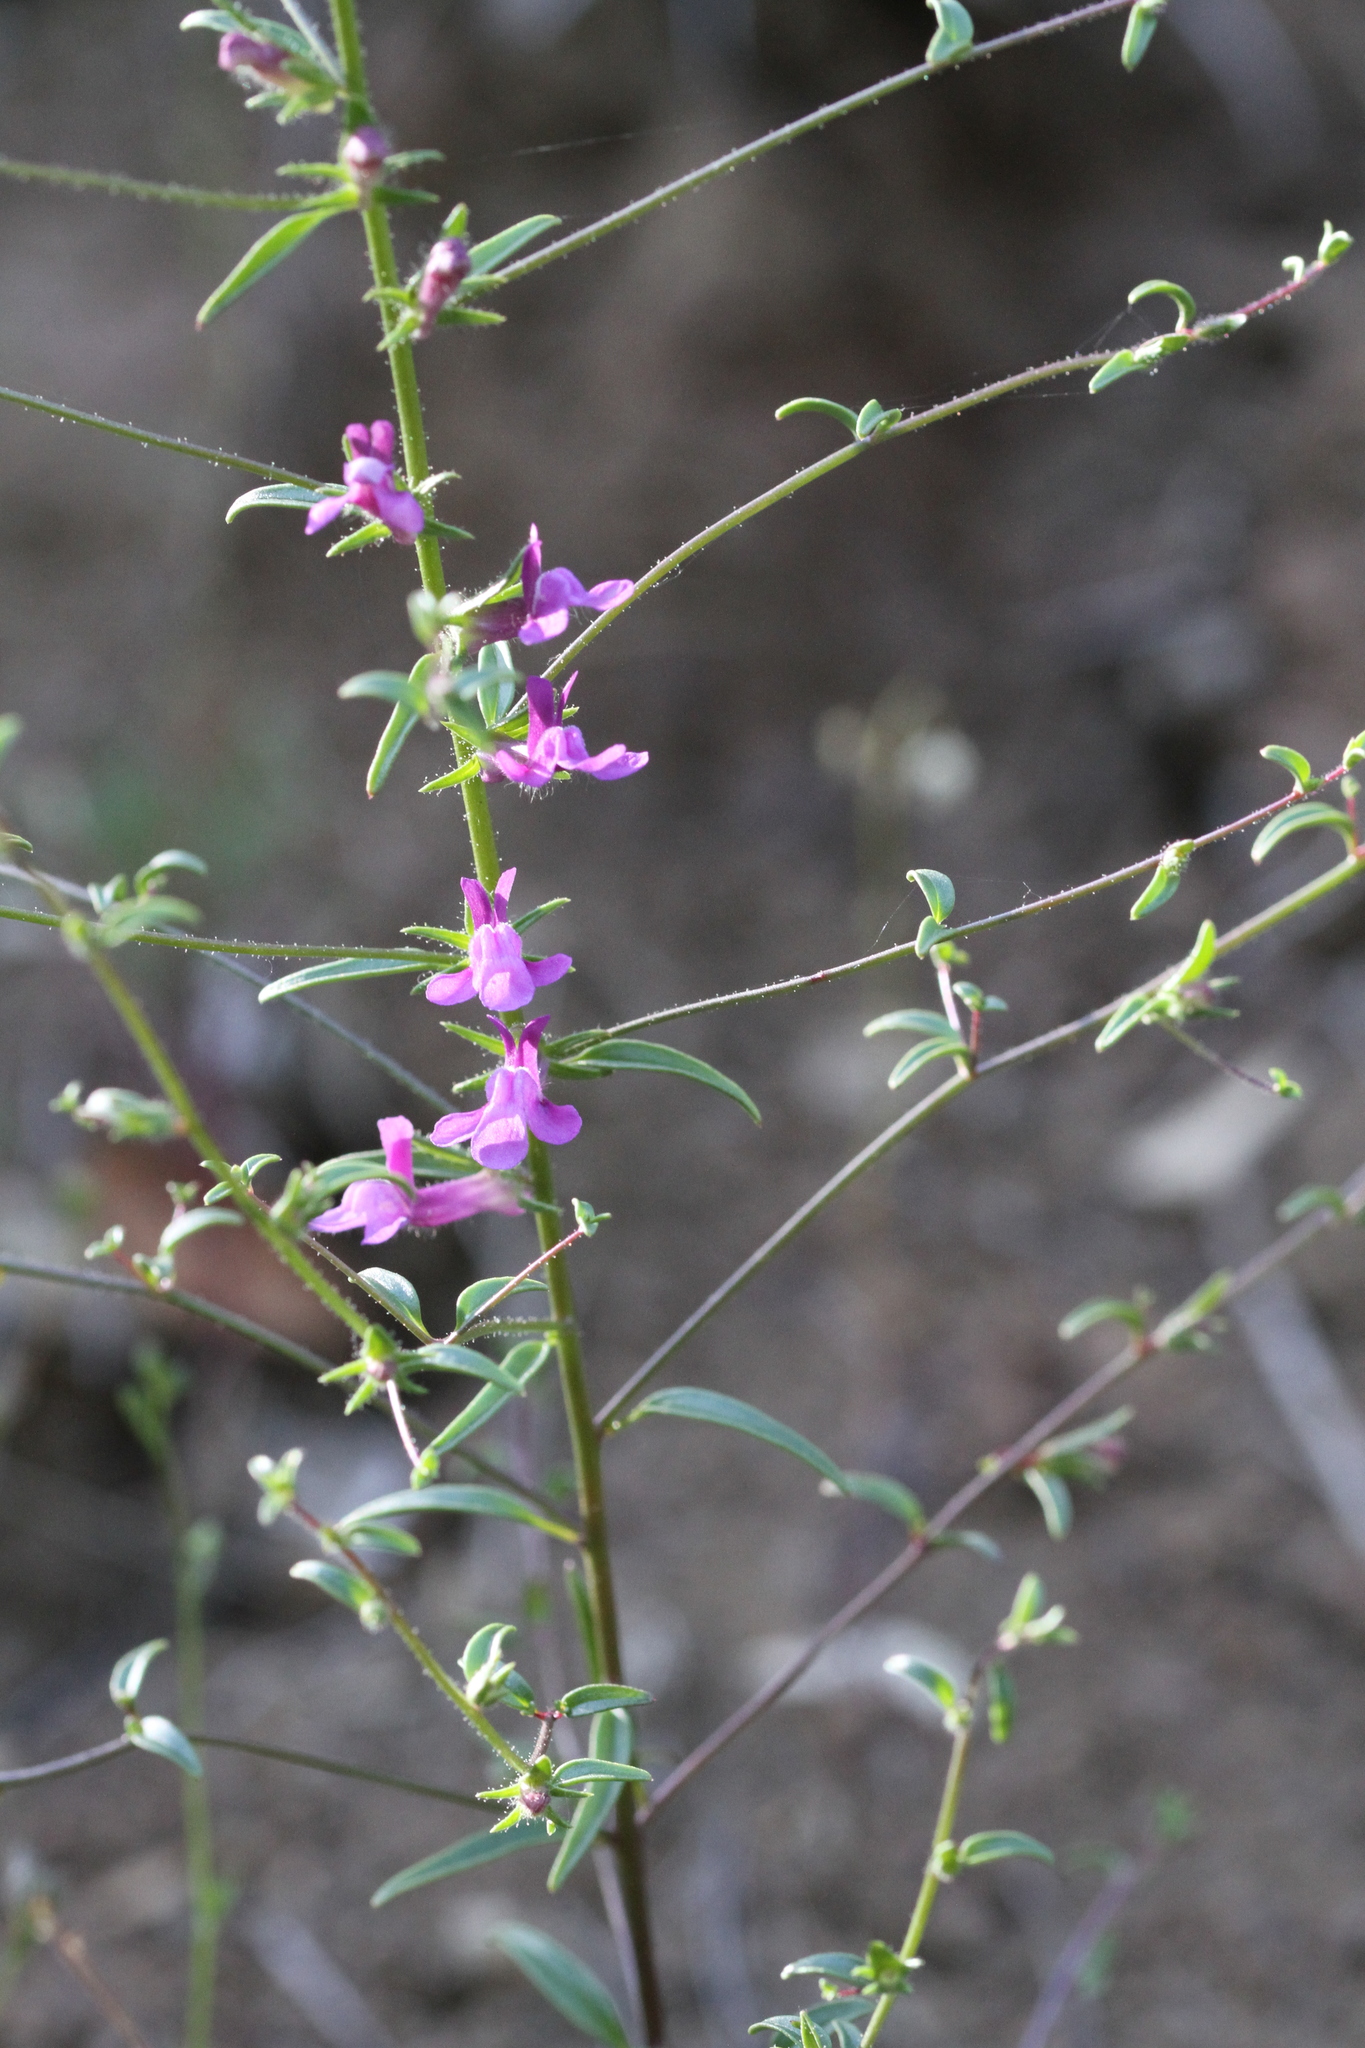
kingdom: Plantae
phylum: Tracheophyta
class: Magnoliopsida
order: Lamiales
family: Plantaginaceae
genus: Sairocarpus
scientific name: Sairocarpus vexillocalyculatus
